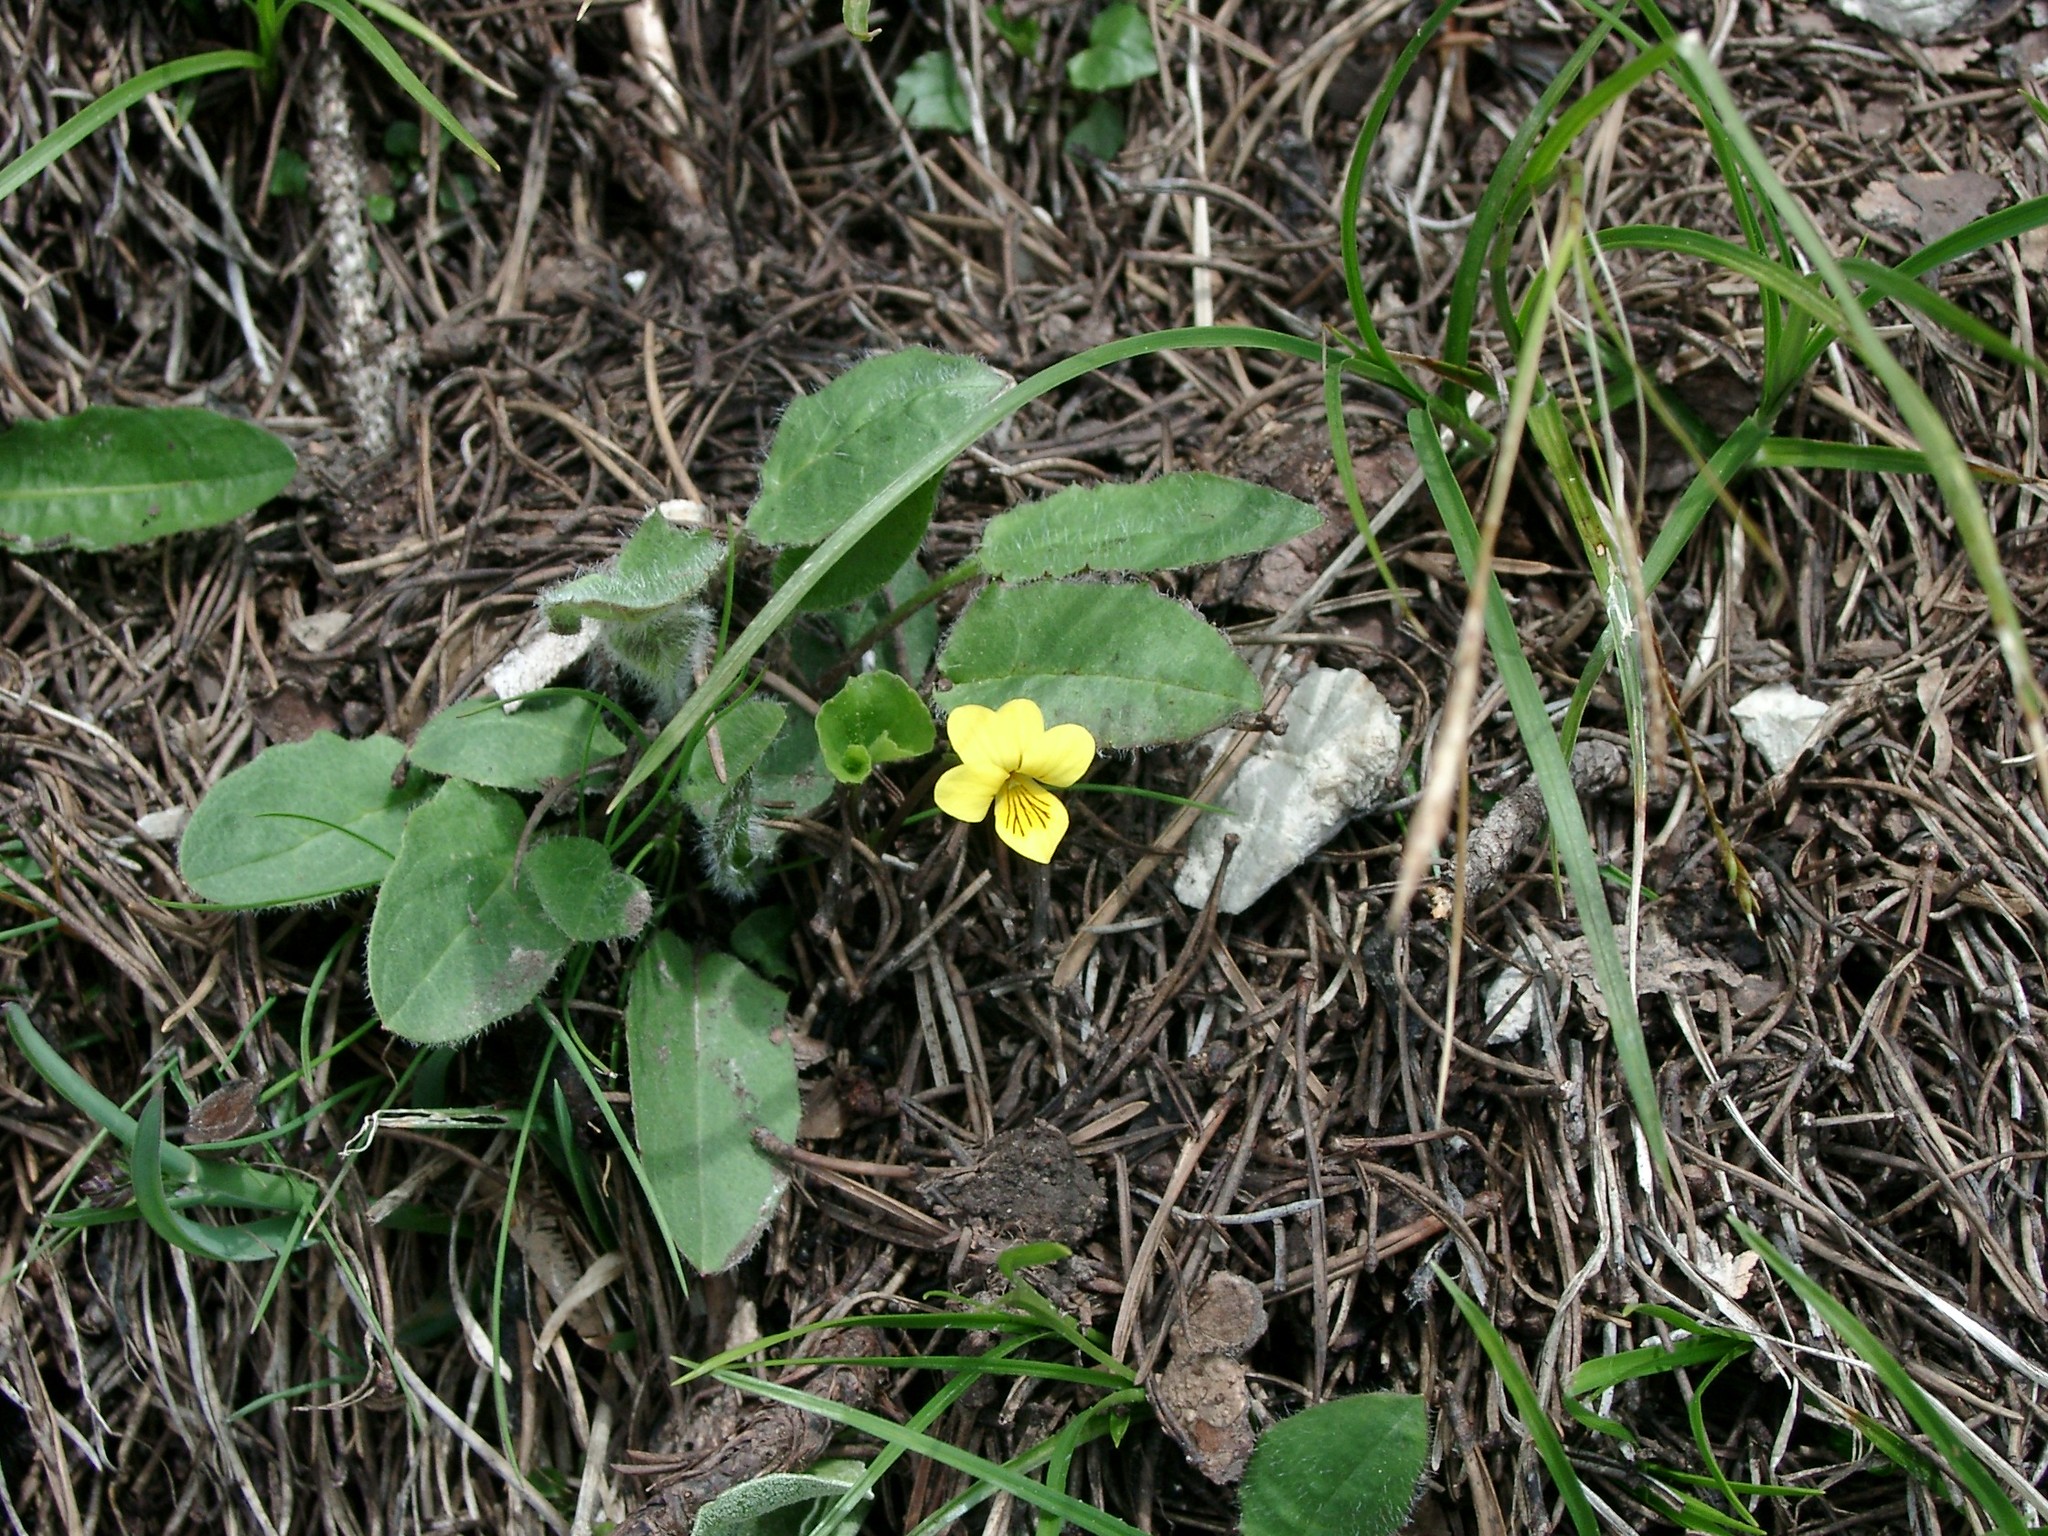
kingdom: Plantae
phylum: Tracheophyta
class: Magnoliopsida
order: Malpighiales
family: Violaceae
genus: Viola
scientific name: Viola biflora
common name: Alpine yellow violet
